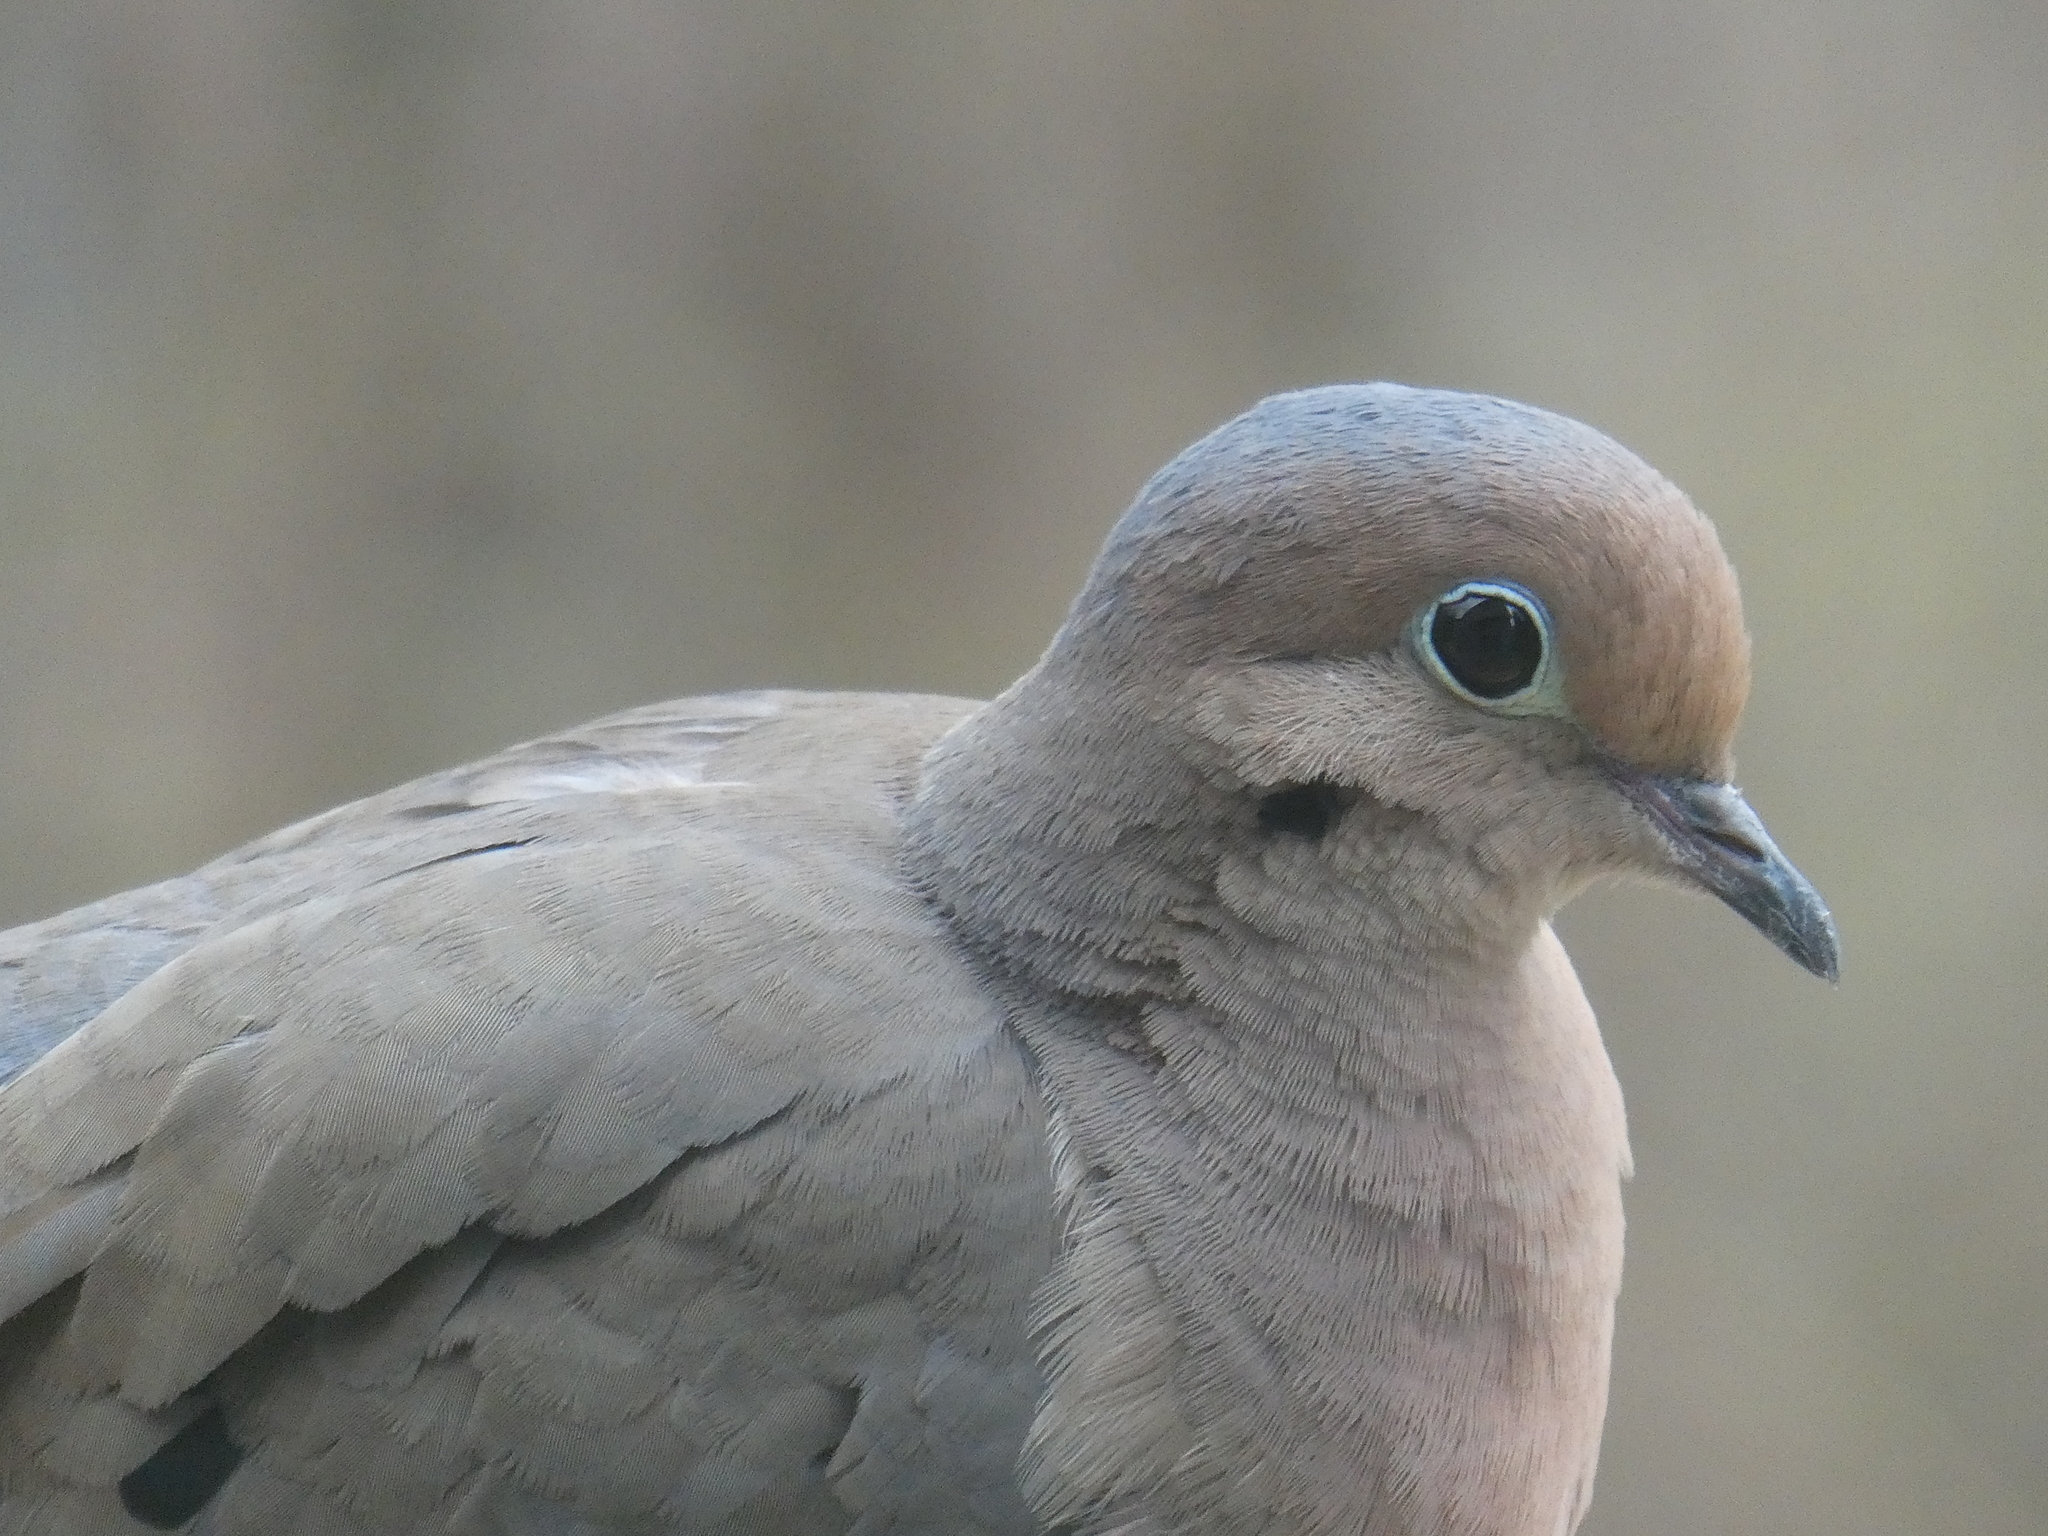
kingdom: Animalia
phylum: Chordata
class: Aves
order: Columbiformes
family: Columbidae
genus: Zenaida
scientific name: Zenaida macroura
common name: Mourning dove
